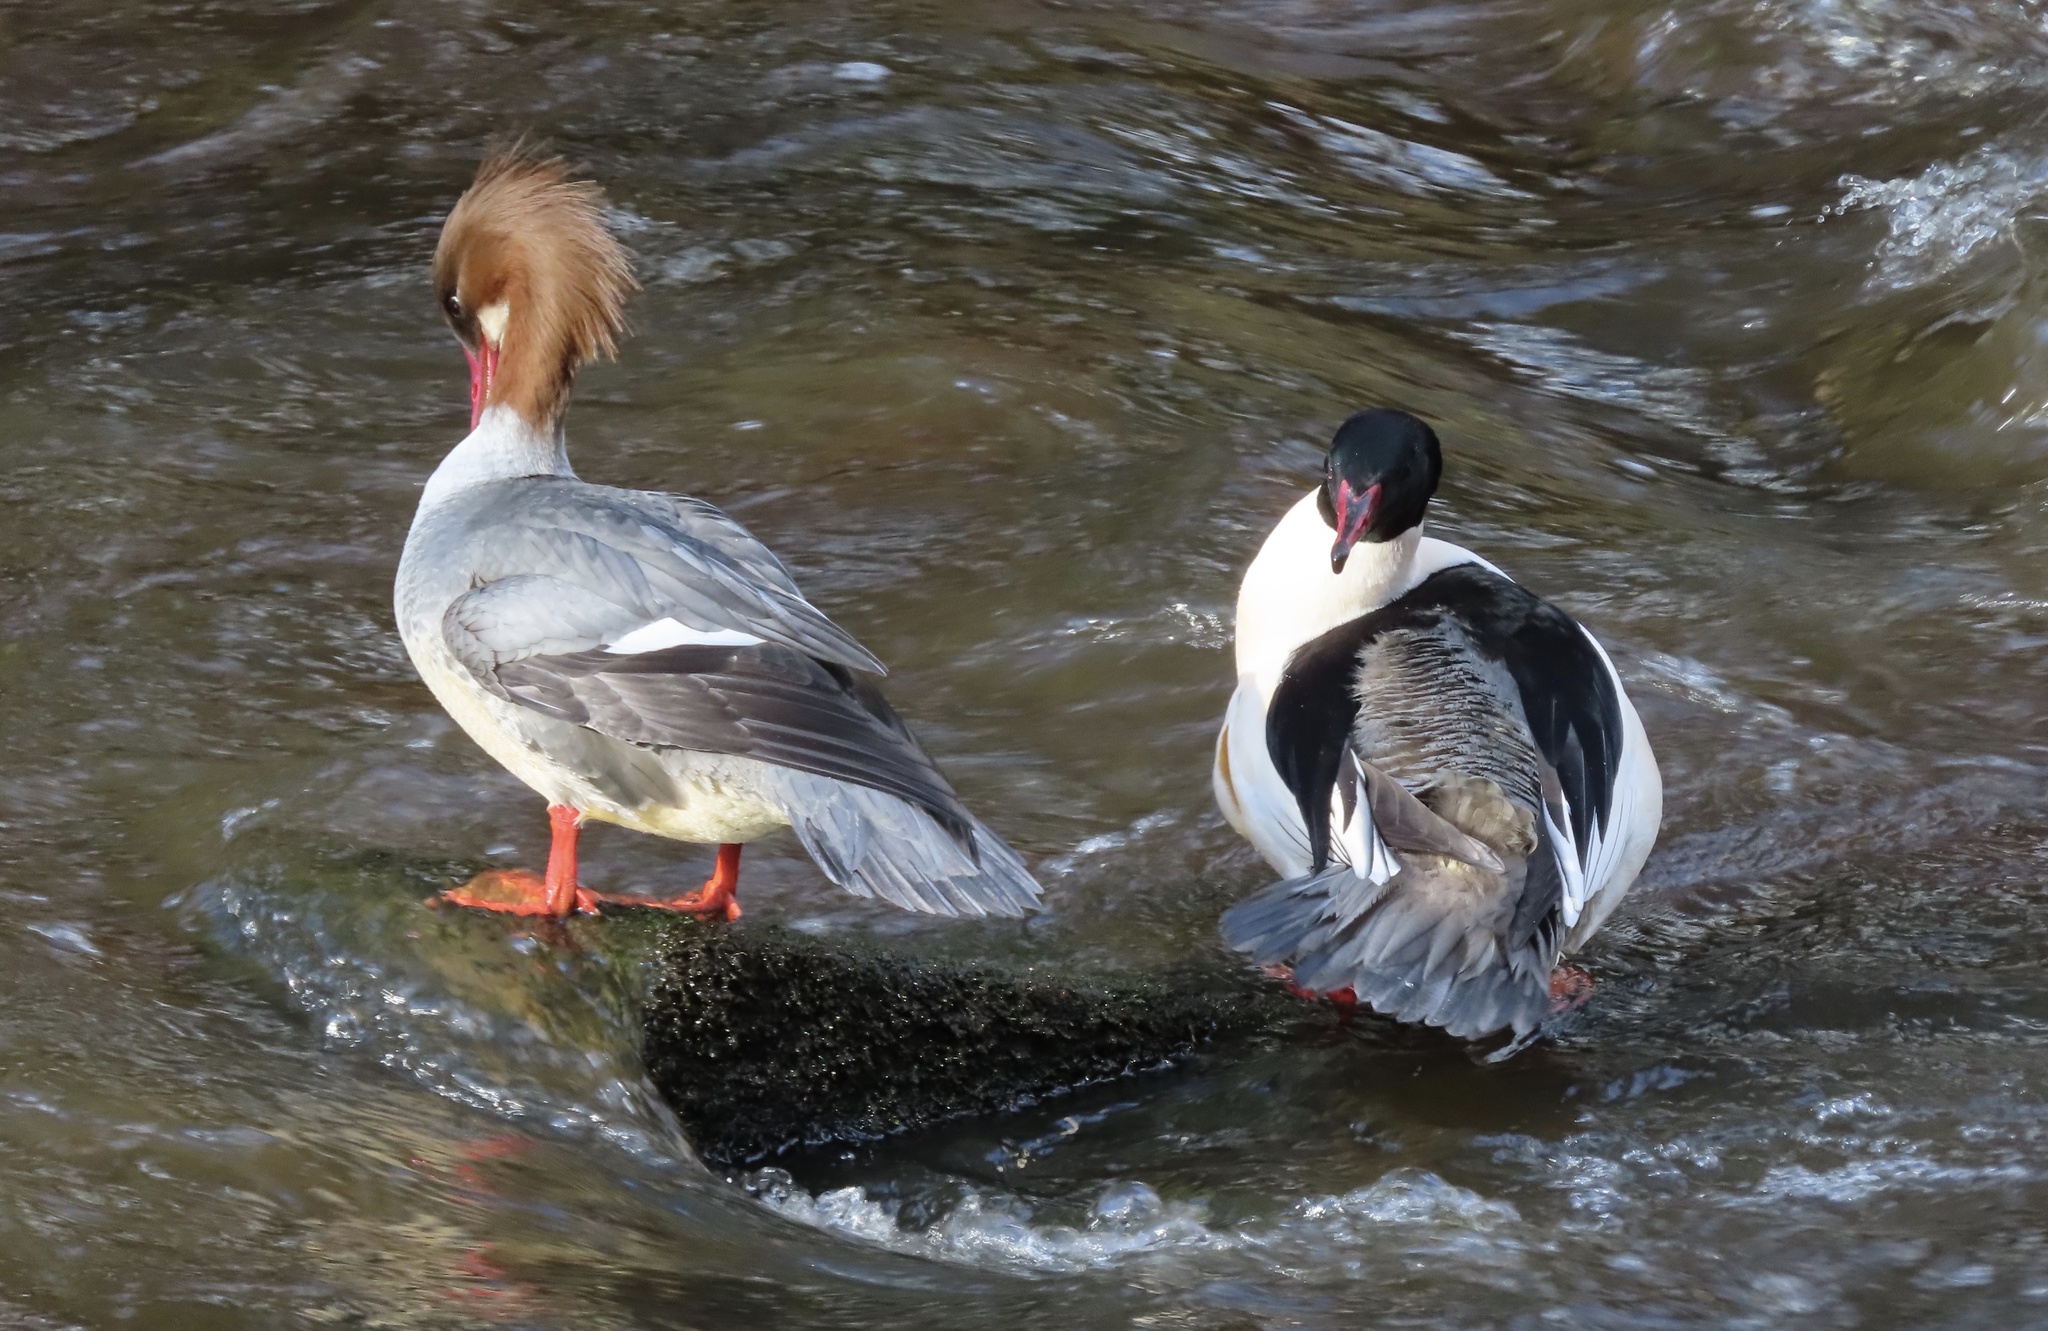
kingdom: Animalia
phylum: Chordata
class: Aves
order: Anseriformes
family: Anatidae
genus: Mergus
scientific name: Mergus merganser
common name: Common merganser
